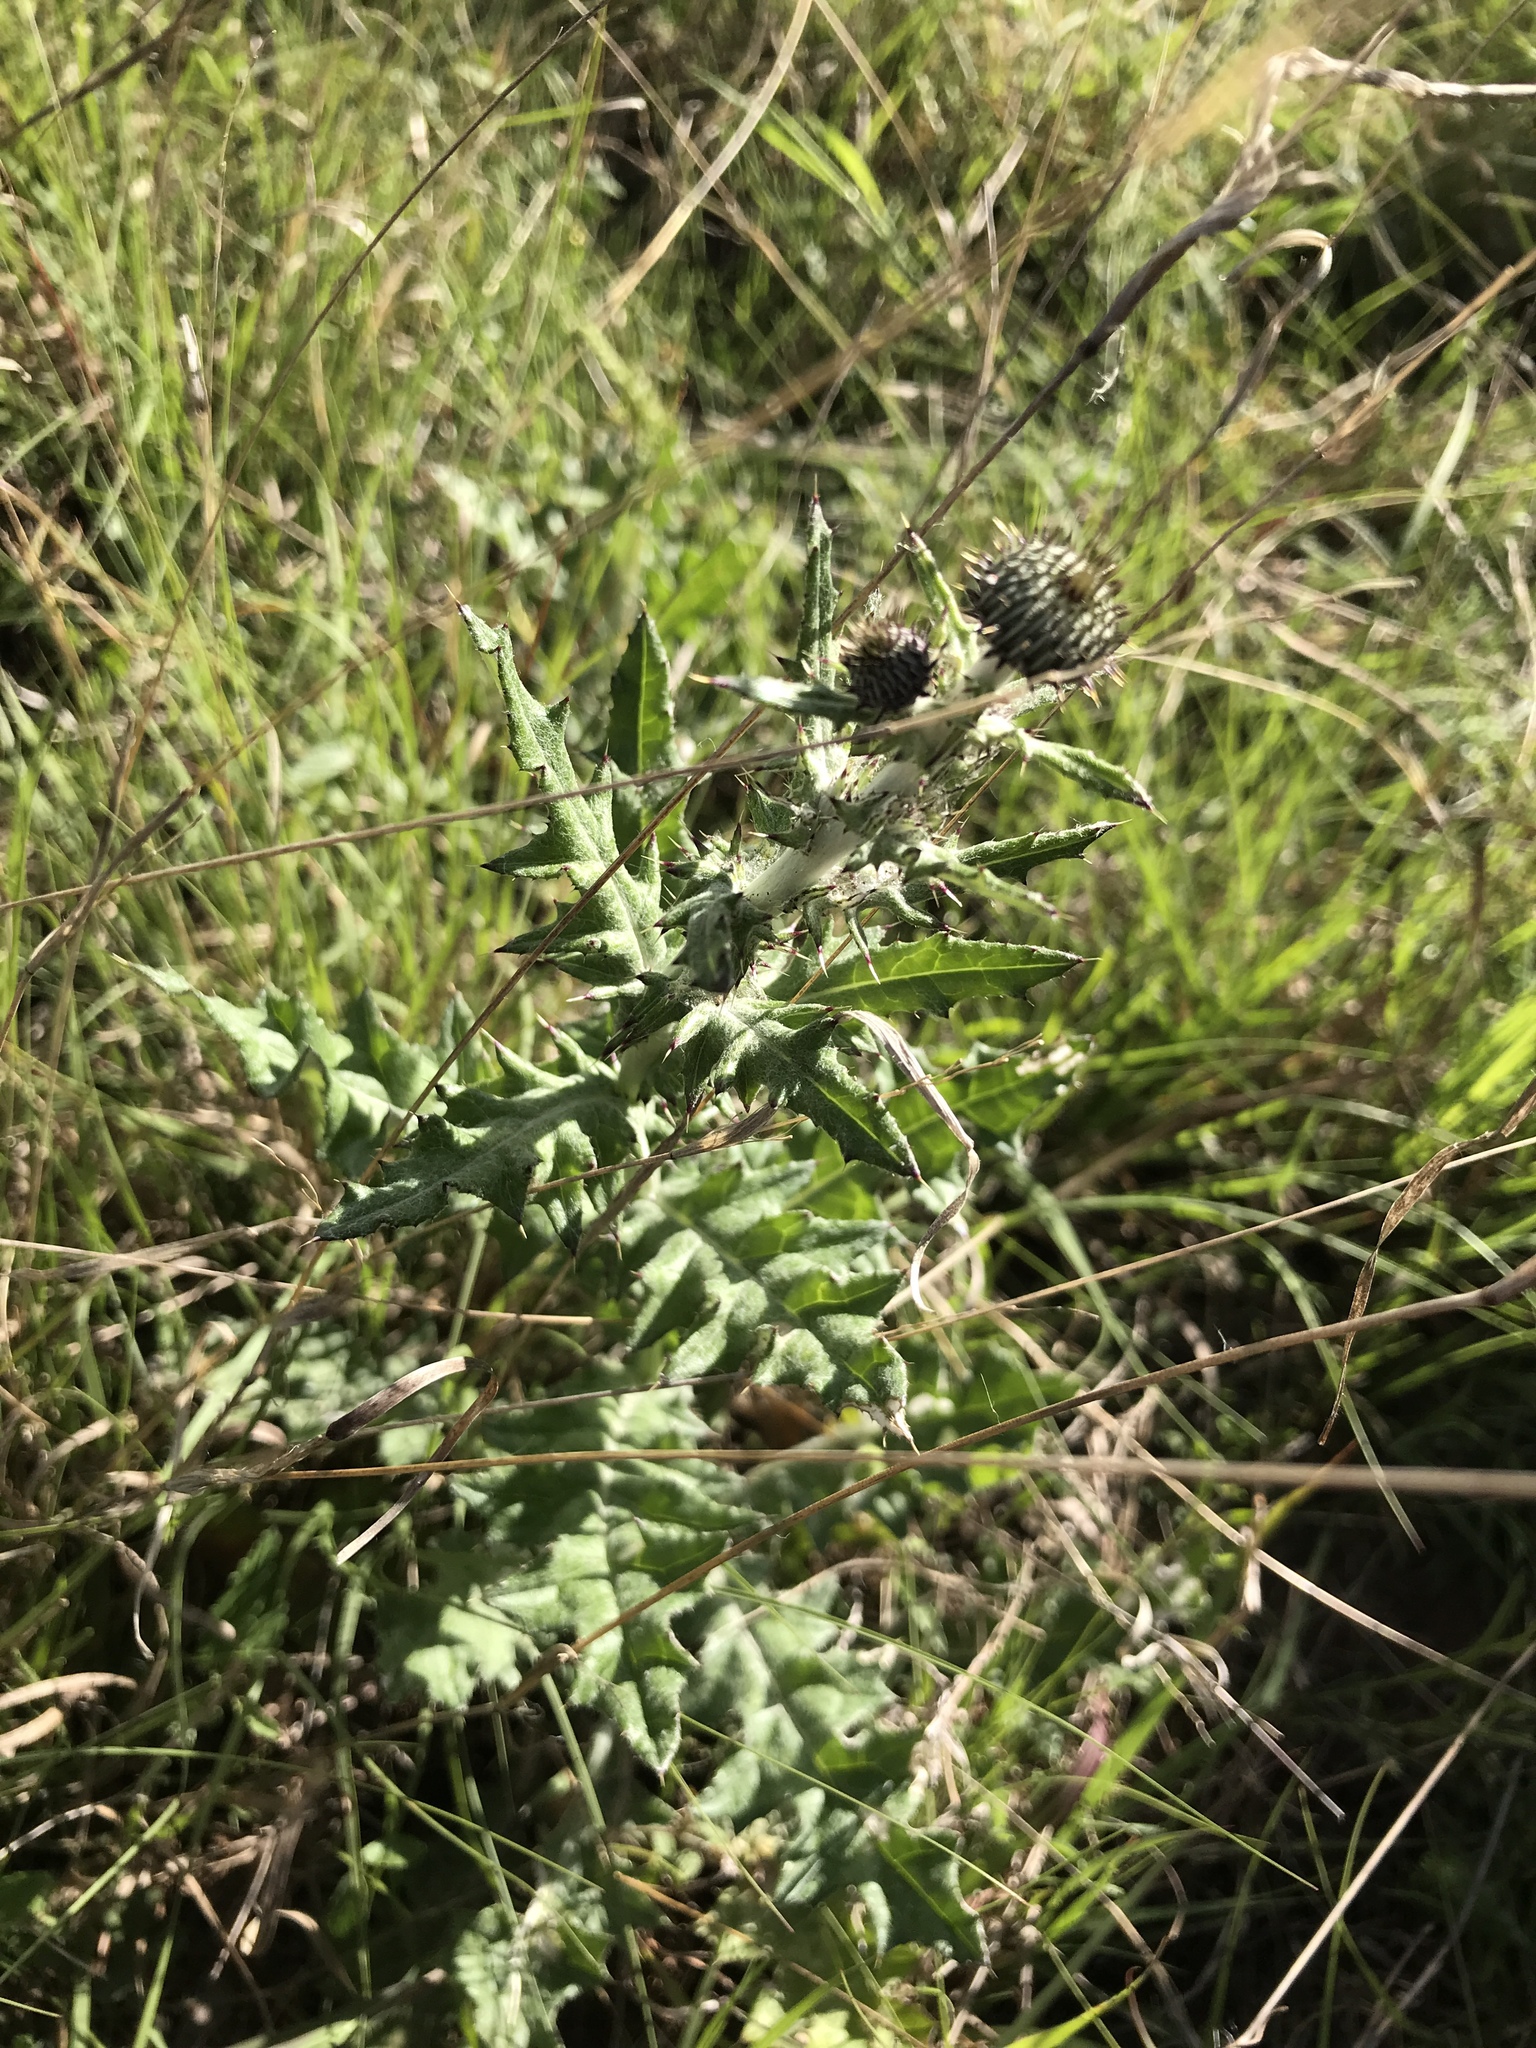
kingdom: Plantae
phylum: Tracheophyta
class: Magnoliopsida
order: Asterales
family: Asteraceae
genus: Cirsium
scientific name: Cirsium texanum
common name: Texas purple thistle
